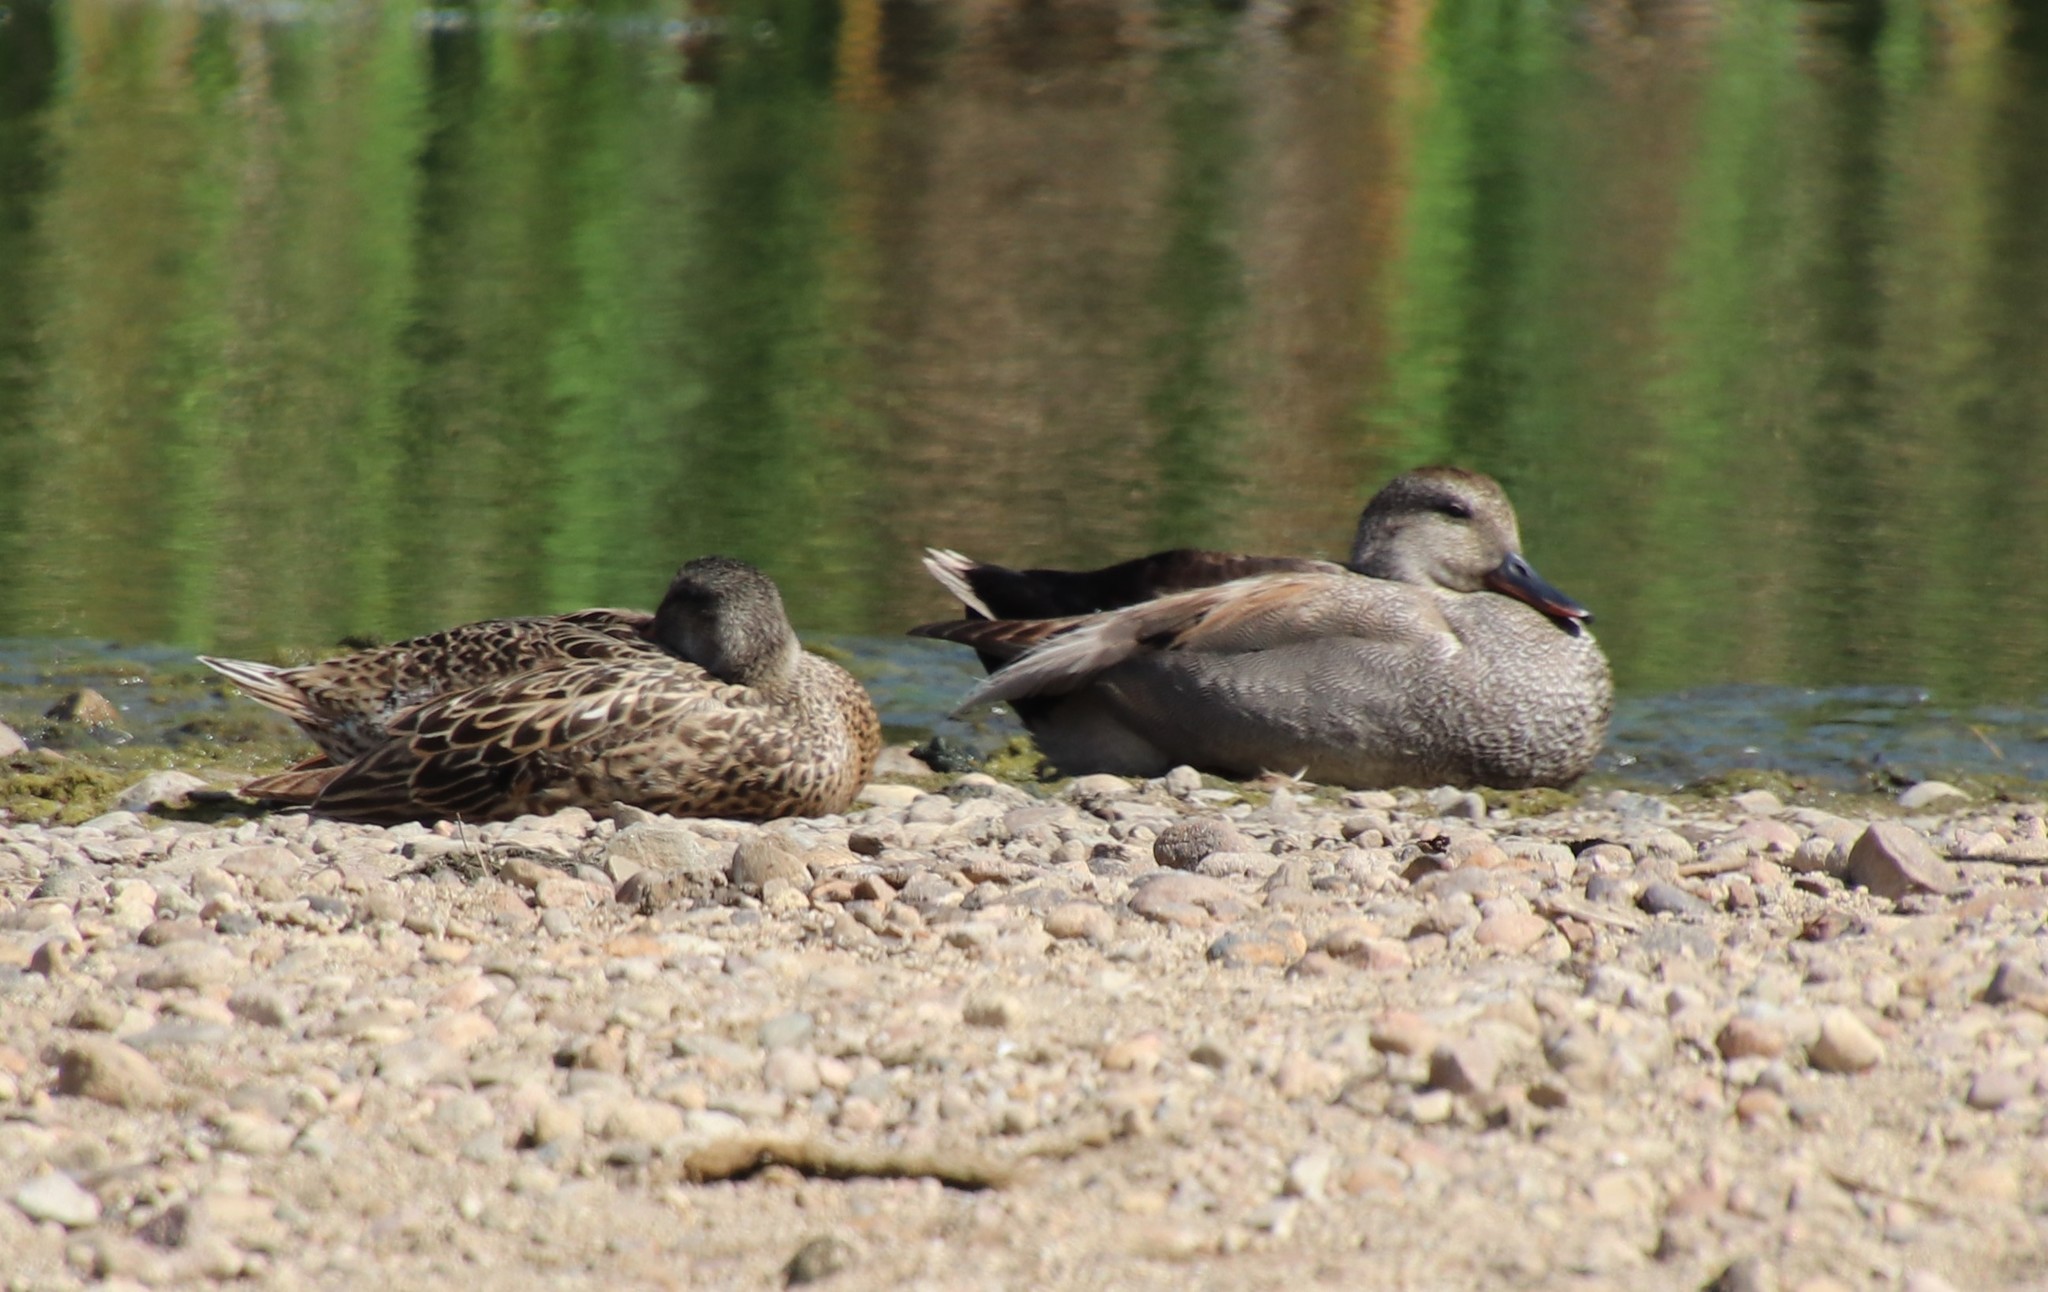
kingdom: Animalia
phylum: Chordata
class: Aves
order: Anseriformes
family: Anatidae
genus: Mareca
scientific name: Mareca strepera
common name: Gadwall
